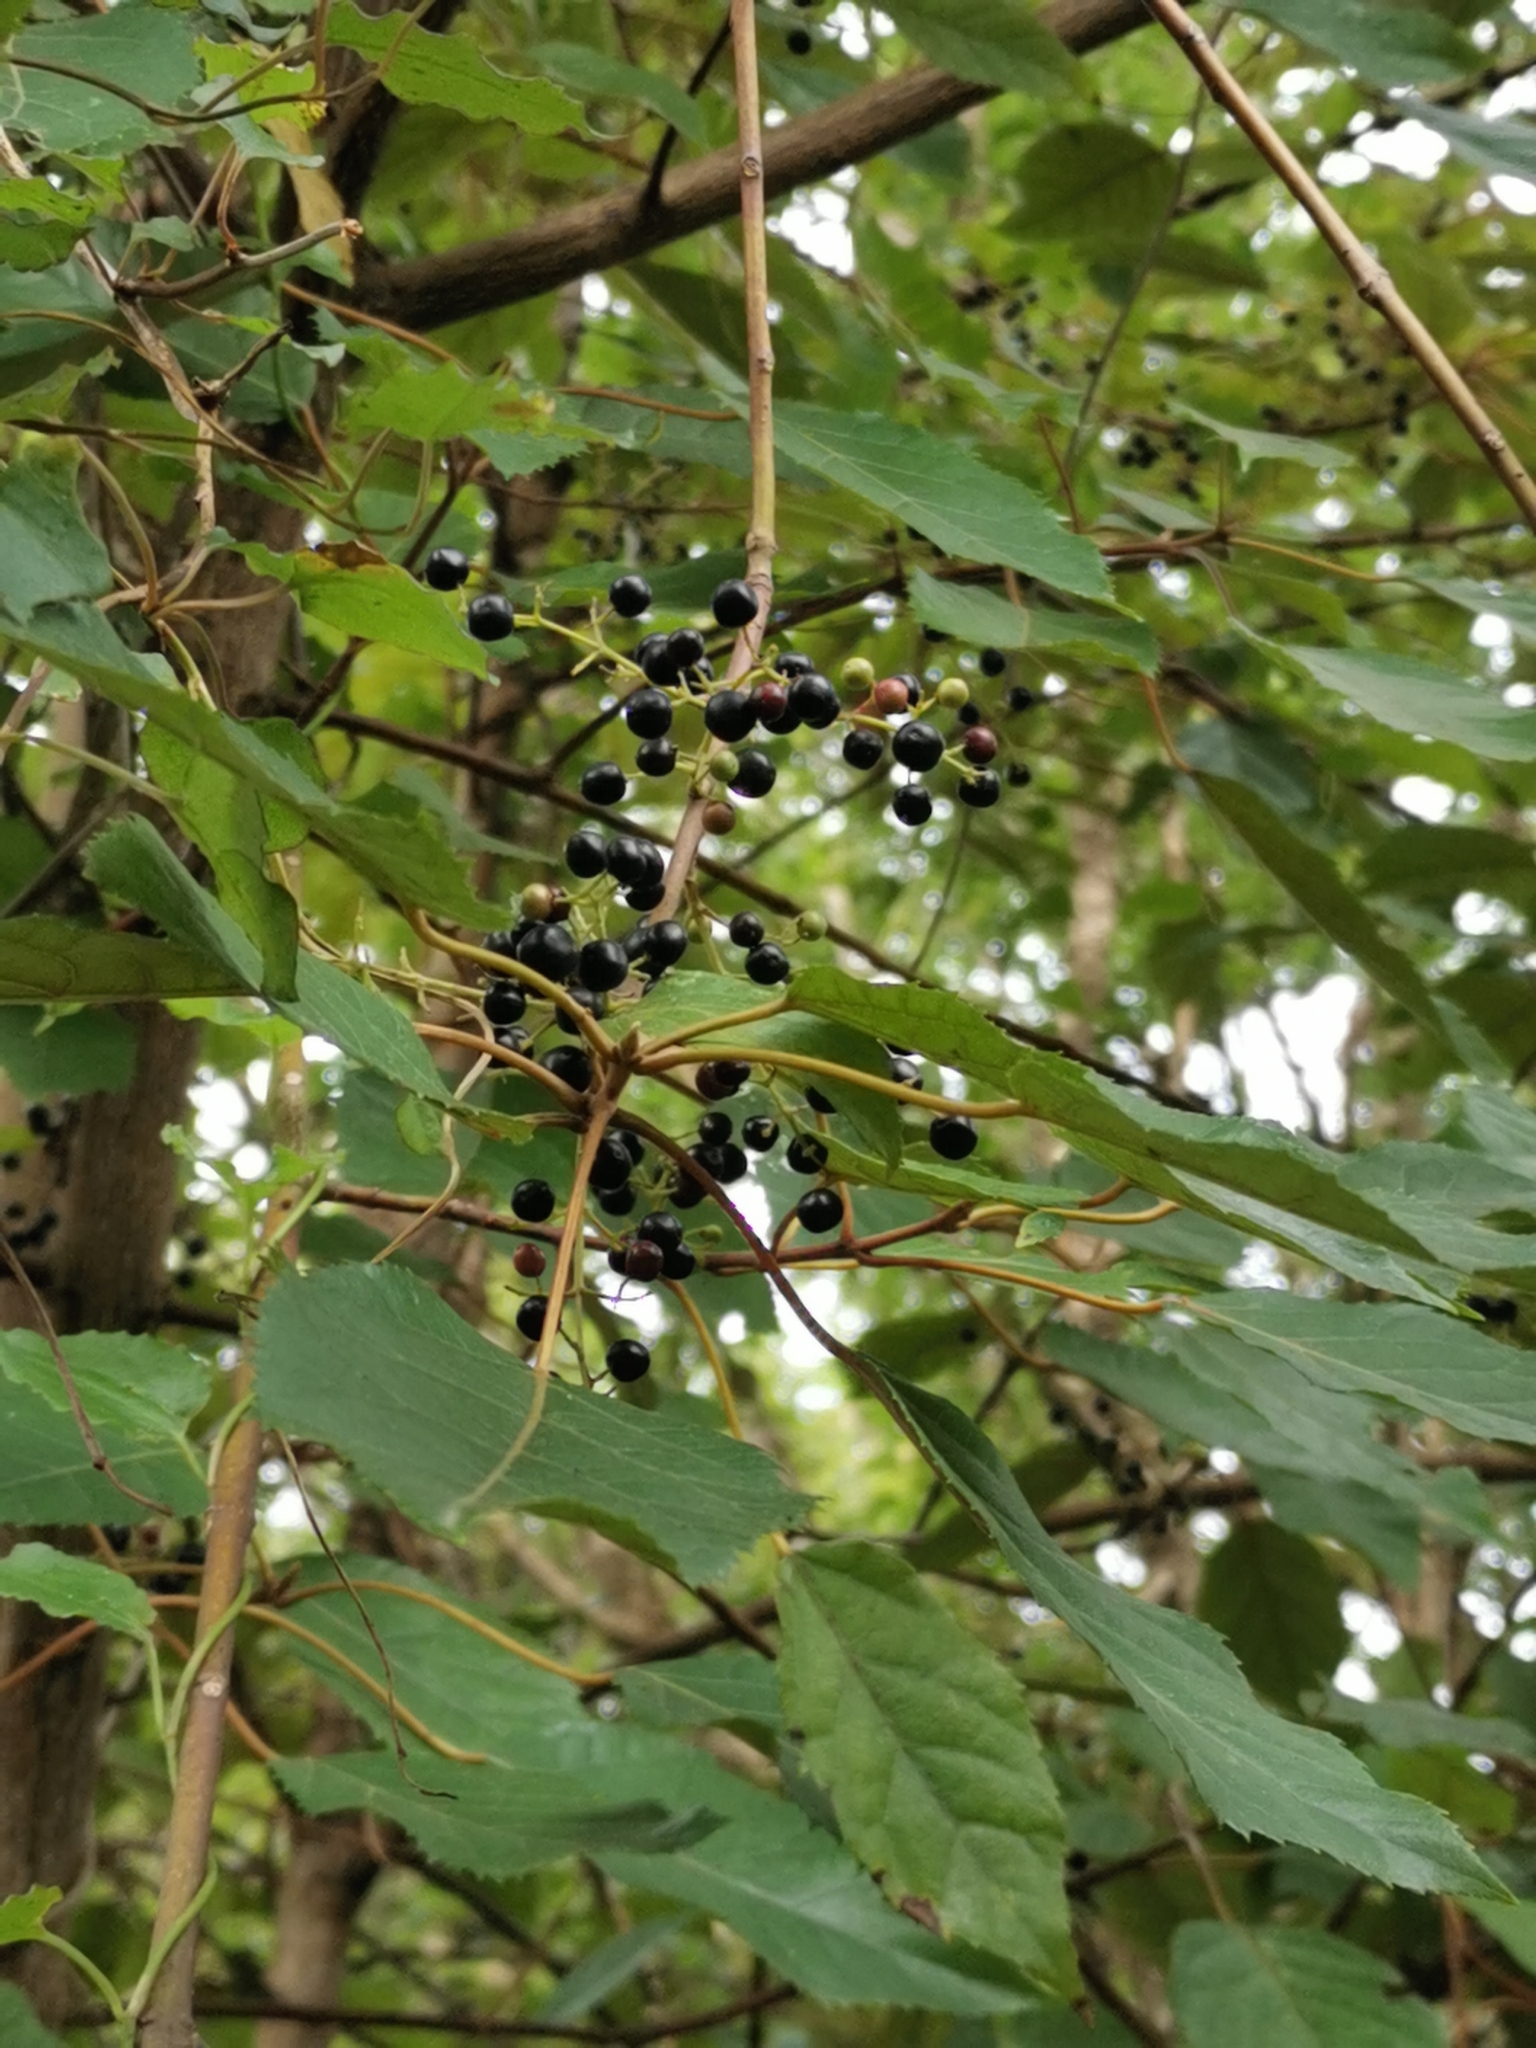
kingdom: Plantae
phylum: Tracheophyta
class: Magnoliopsida
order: Oxalidales
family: Elaeocarpaceae
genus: Aristotelia
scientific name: Aristotelia serrata
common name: New zealand wineberry
